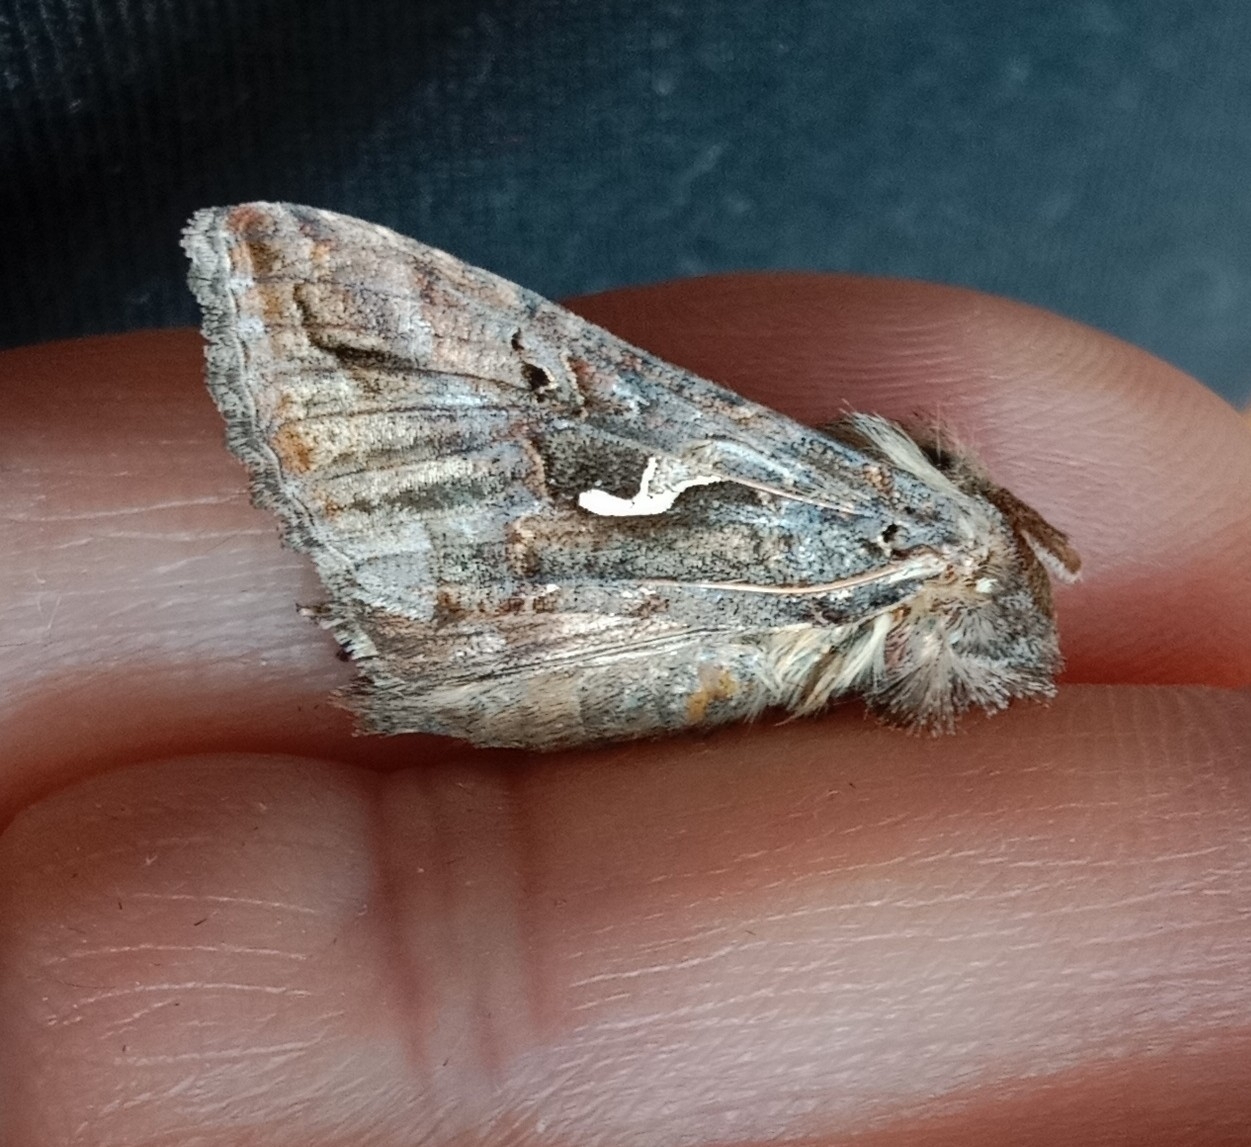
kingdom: Animalia
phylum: Arthropoda
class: Insecta
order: Lepidoptera
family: Noctuidae
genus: Autographa
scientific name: Autographa gamma
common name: Silver y
